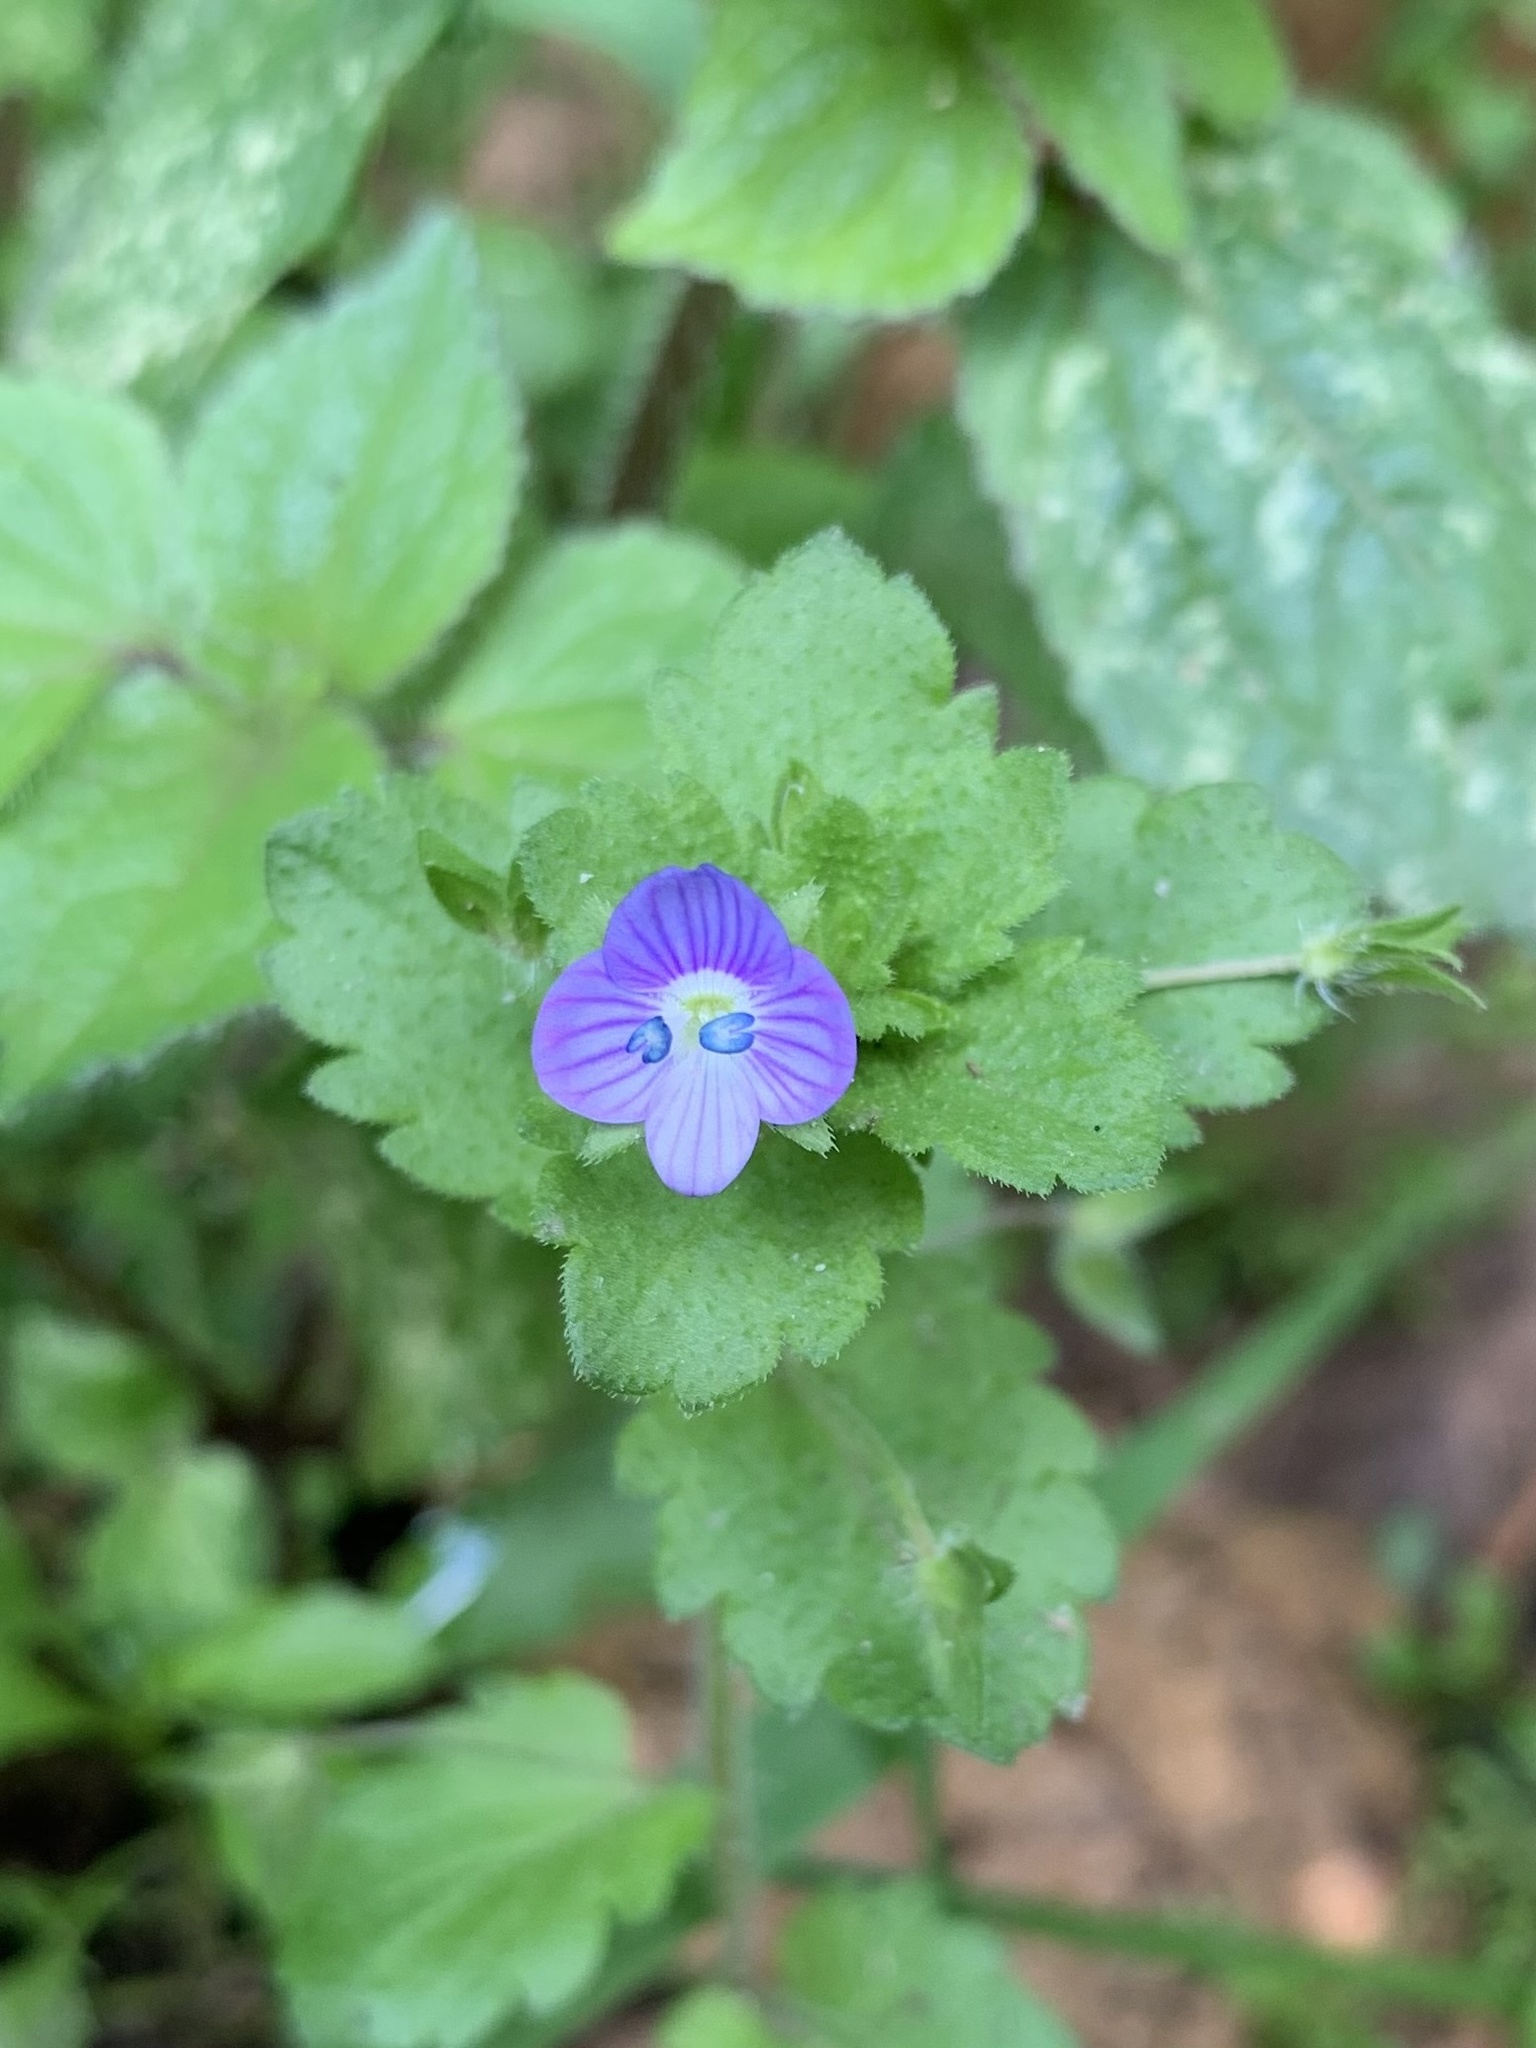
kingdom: Plantae
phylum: Tracheophyta
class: Magnoliopsida
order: Lamiales
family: Plantaginaceae
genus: Veronica
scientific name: Veronica persica
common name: Common field-speedwell
